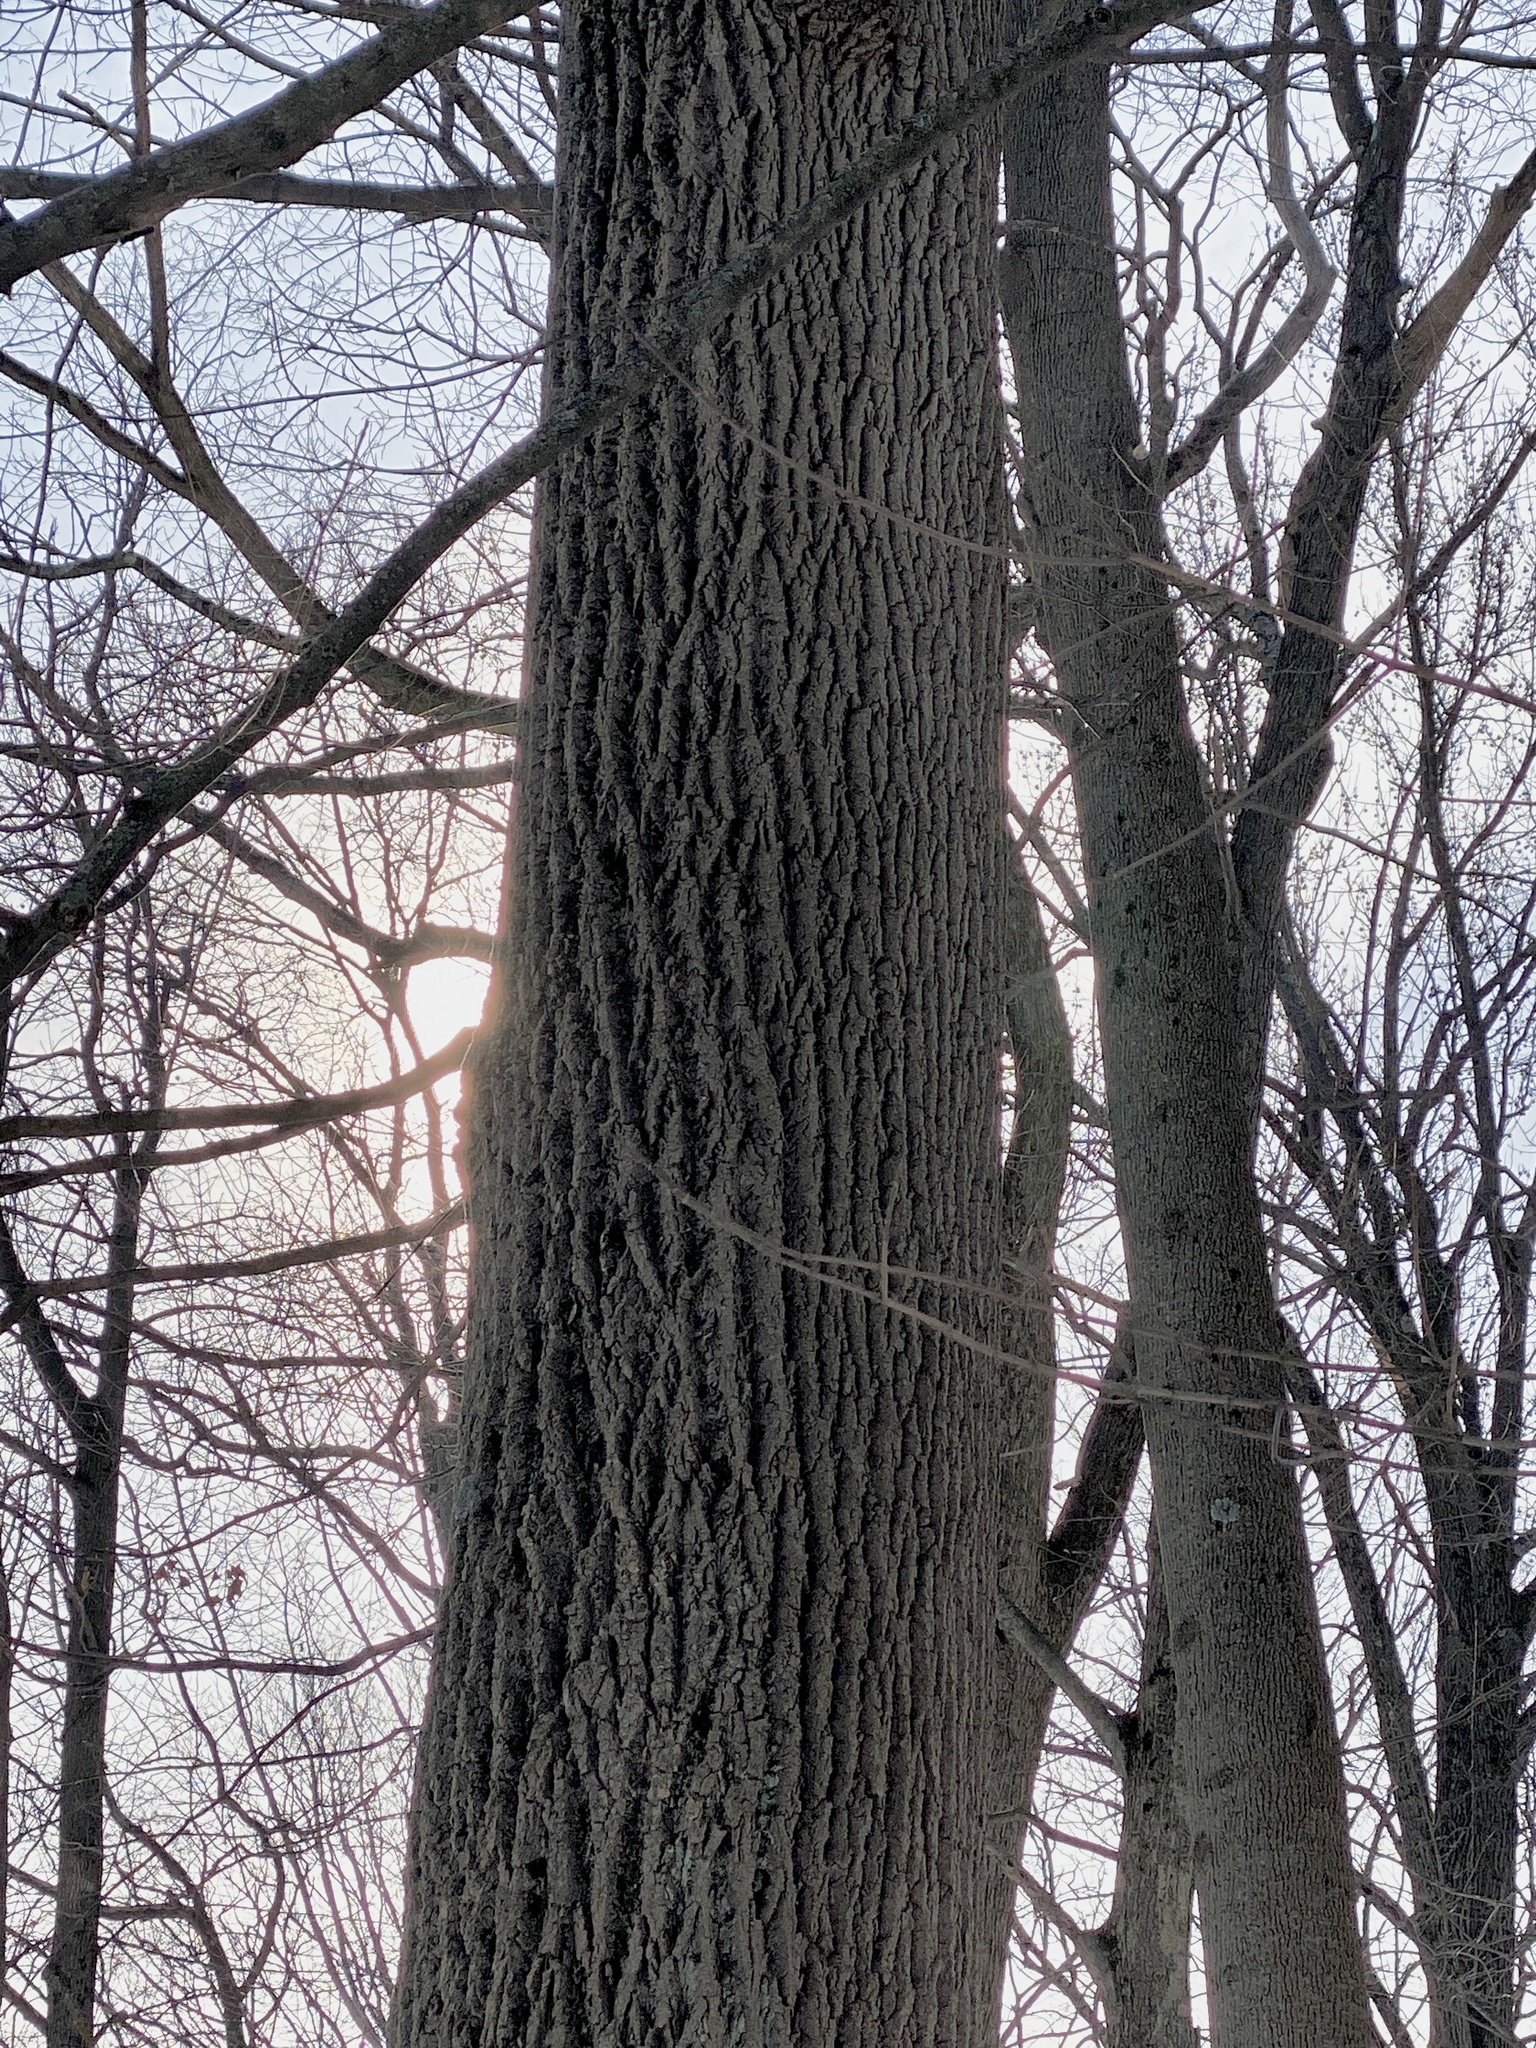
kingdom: Plantae
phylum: Tracheophyta
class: Magnoliopsida
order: Magnoliales
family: Magnoliaceae
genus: Liriodendron
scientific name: Liriodendron tulipifera
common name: Tulip tree
